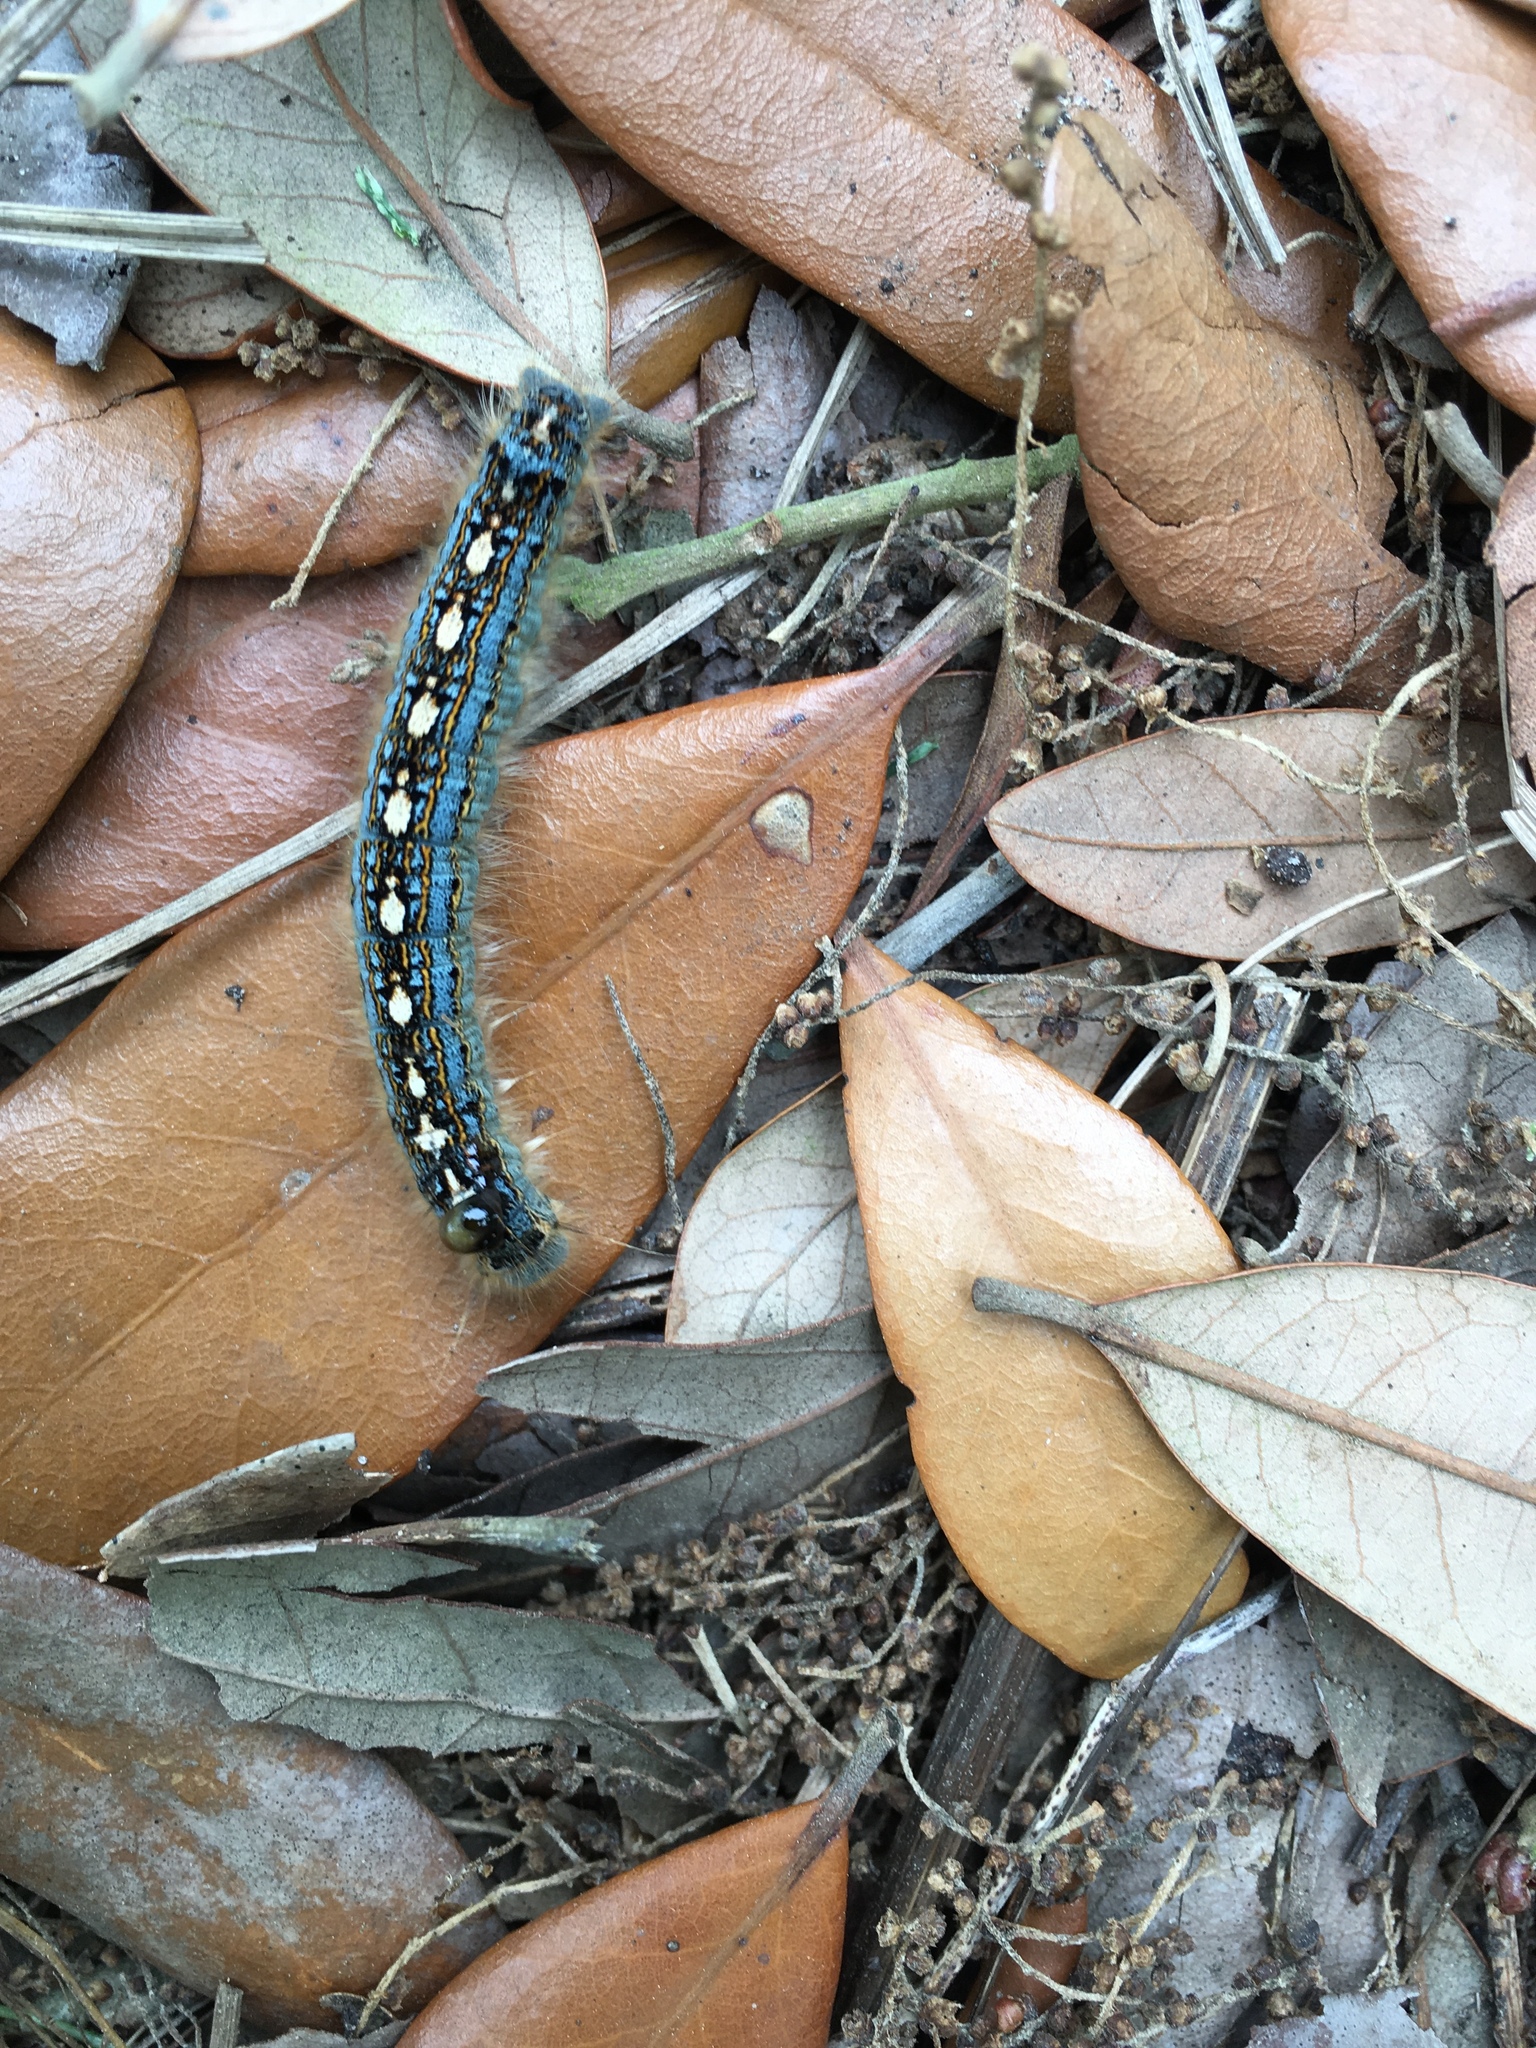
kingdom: Animalia
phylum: Arthropoda
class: Insecta
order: Lepidoptera
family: Lasiocampidae
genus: Malacosoma
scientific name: Malacosoma disstria
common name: Forest tent caterpillar
